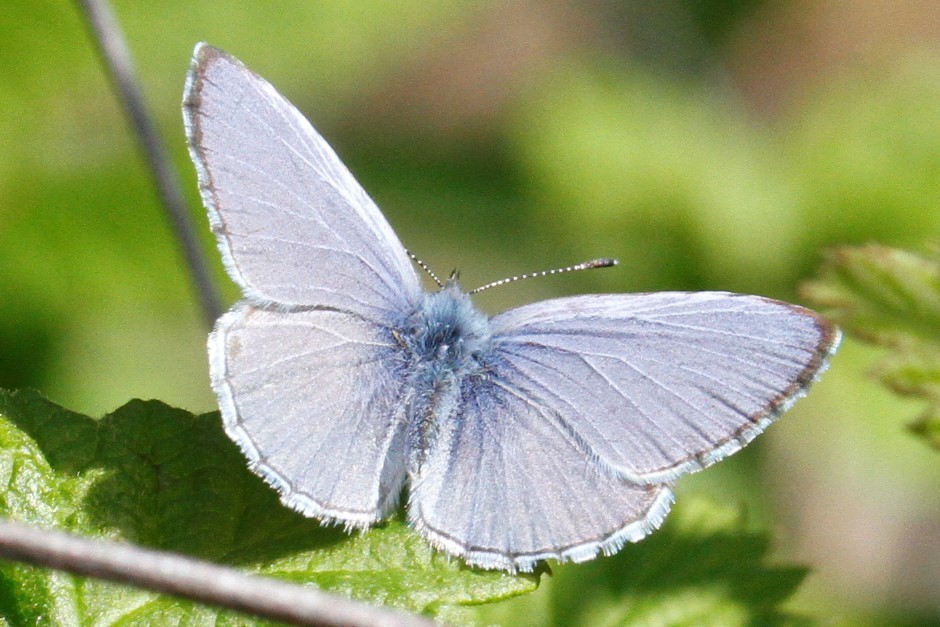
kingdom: Animalia
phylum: Arthropoda
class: Insecta
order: Lepidoptera
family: Lycaenidae
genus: Celastrina
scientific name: Celastrina ladon
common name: Spring azure
